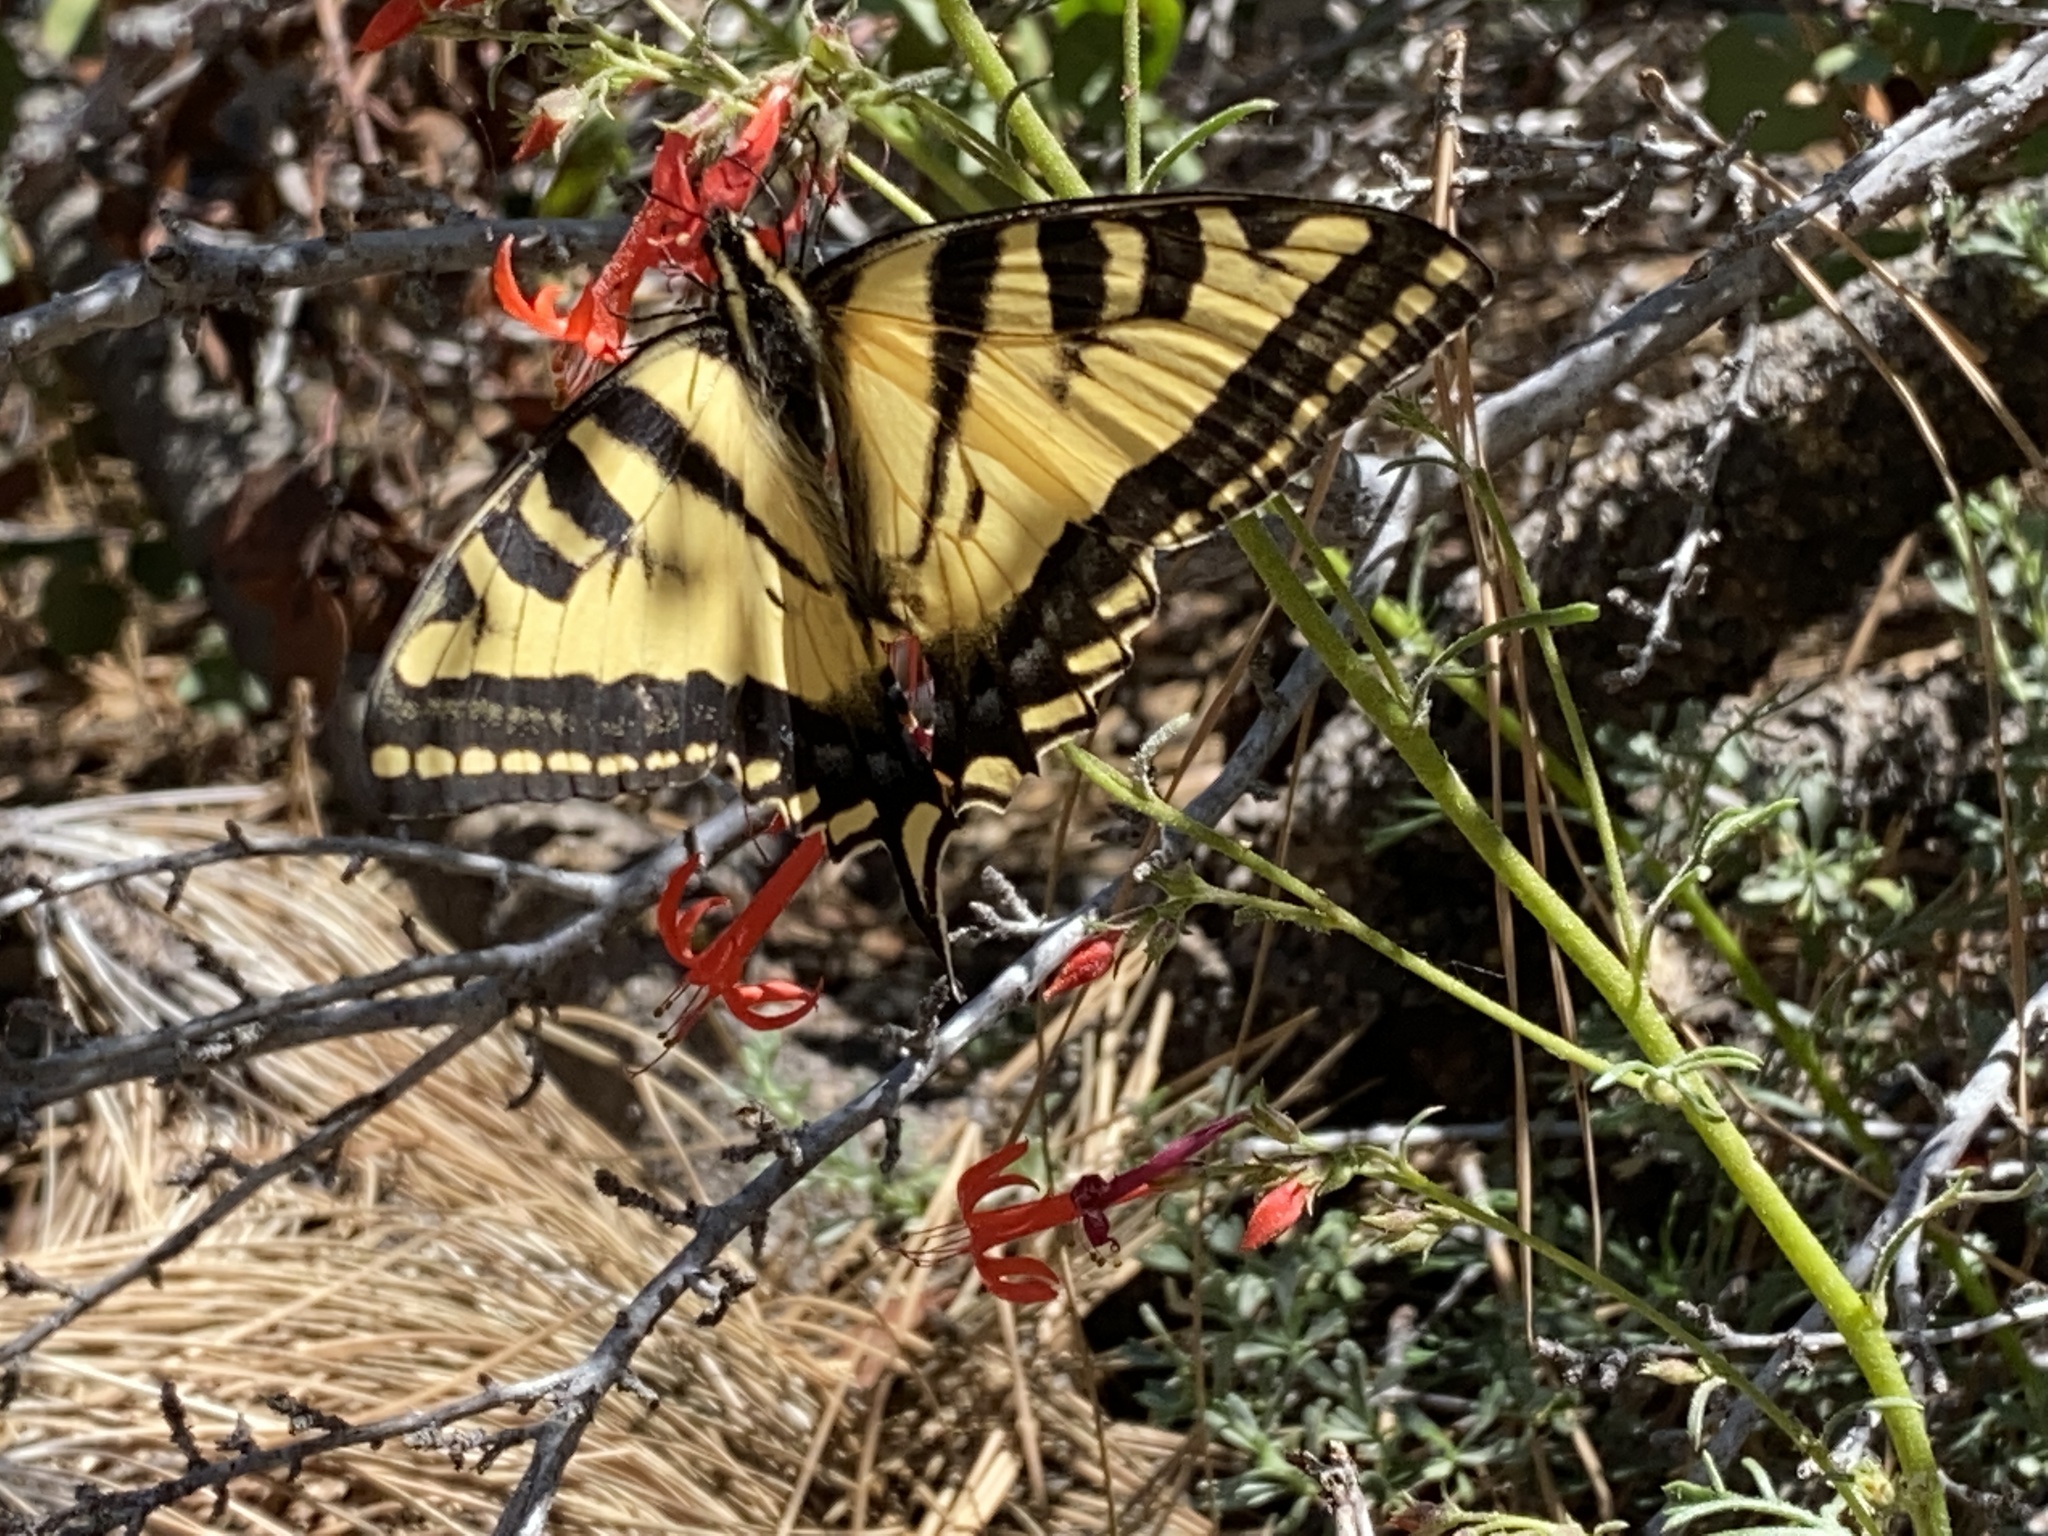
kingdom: Animalia
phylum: Arthropoda
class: Insecta
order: Lepidoptera
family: Papilionidae
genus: Papilio
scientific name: Papilio rutulus
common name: Western tiger swallowtail
